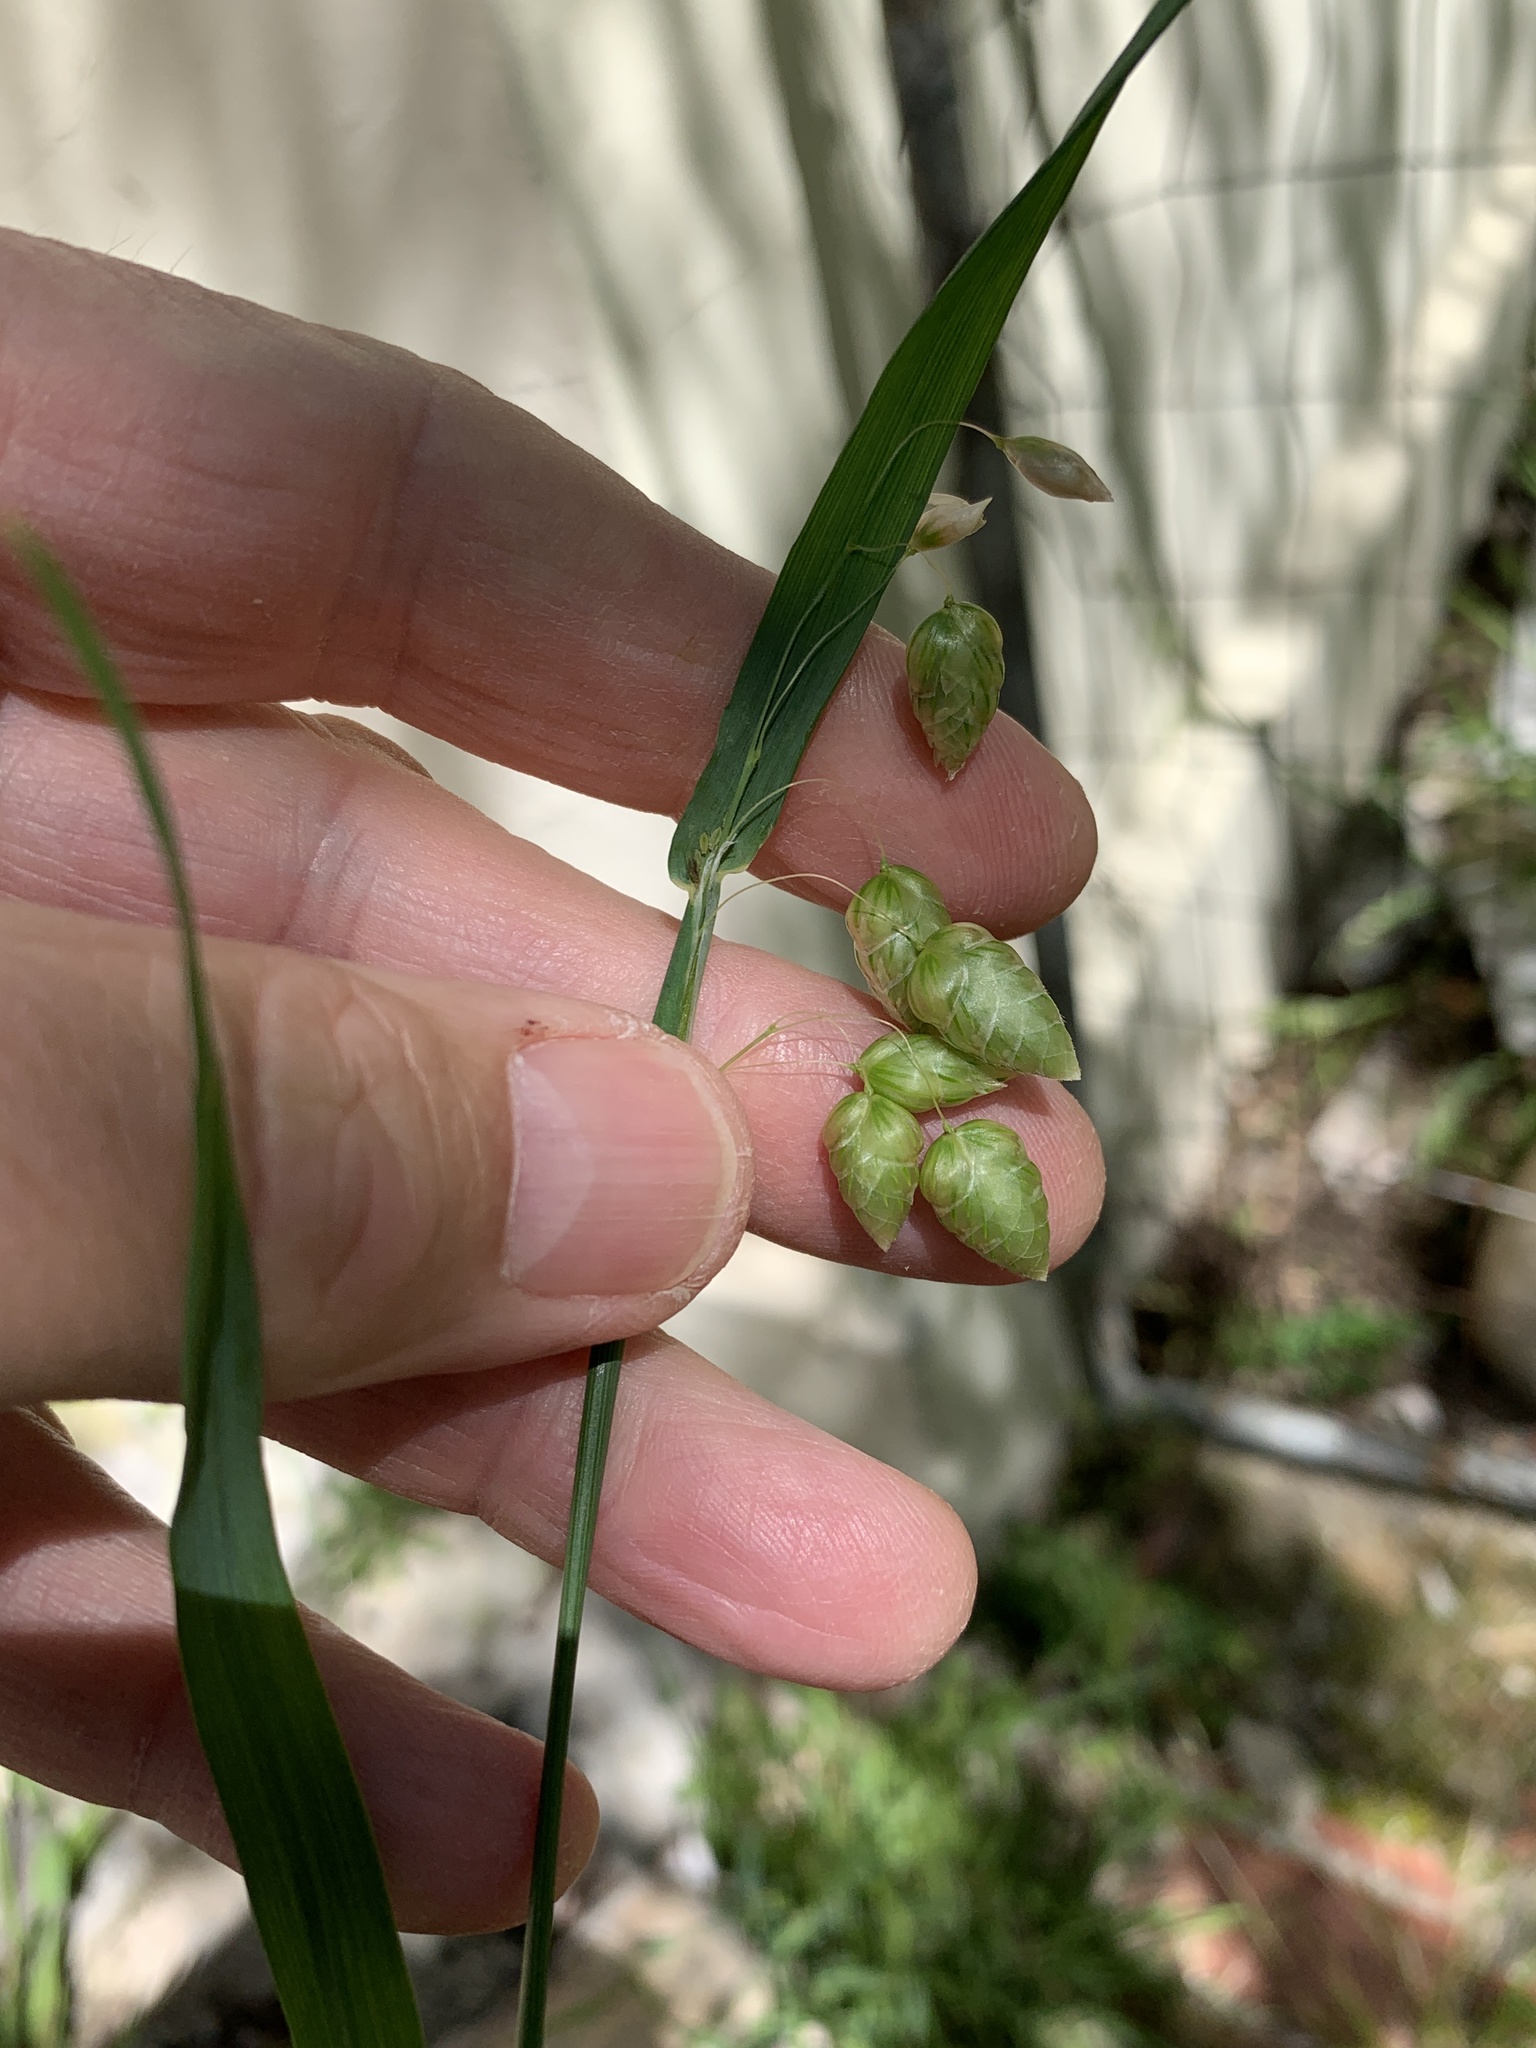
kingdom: Plantae
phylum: Tracheophyta
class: Liliopsida
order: Poales
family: Poaceae
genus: Briza
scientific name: Briza maxima
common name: Big quakinggrass
